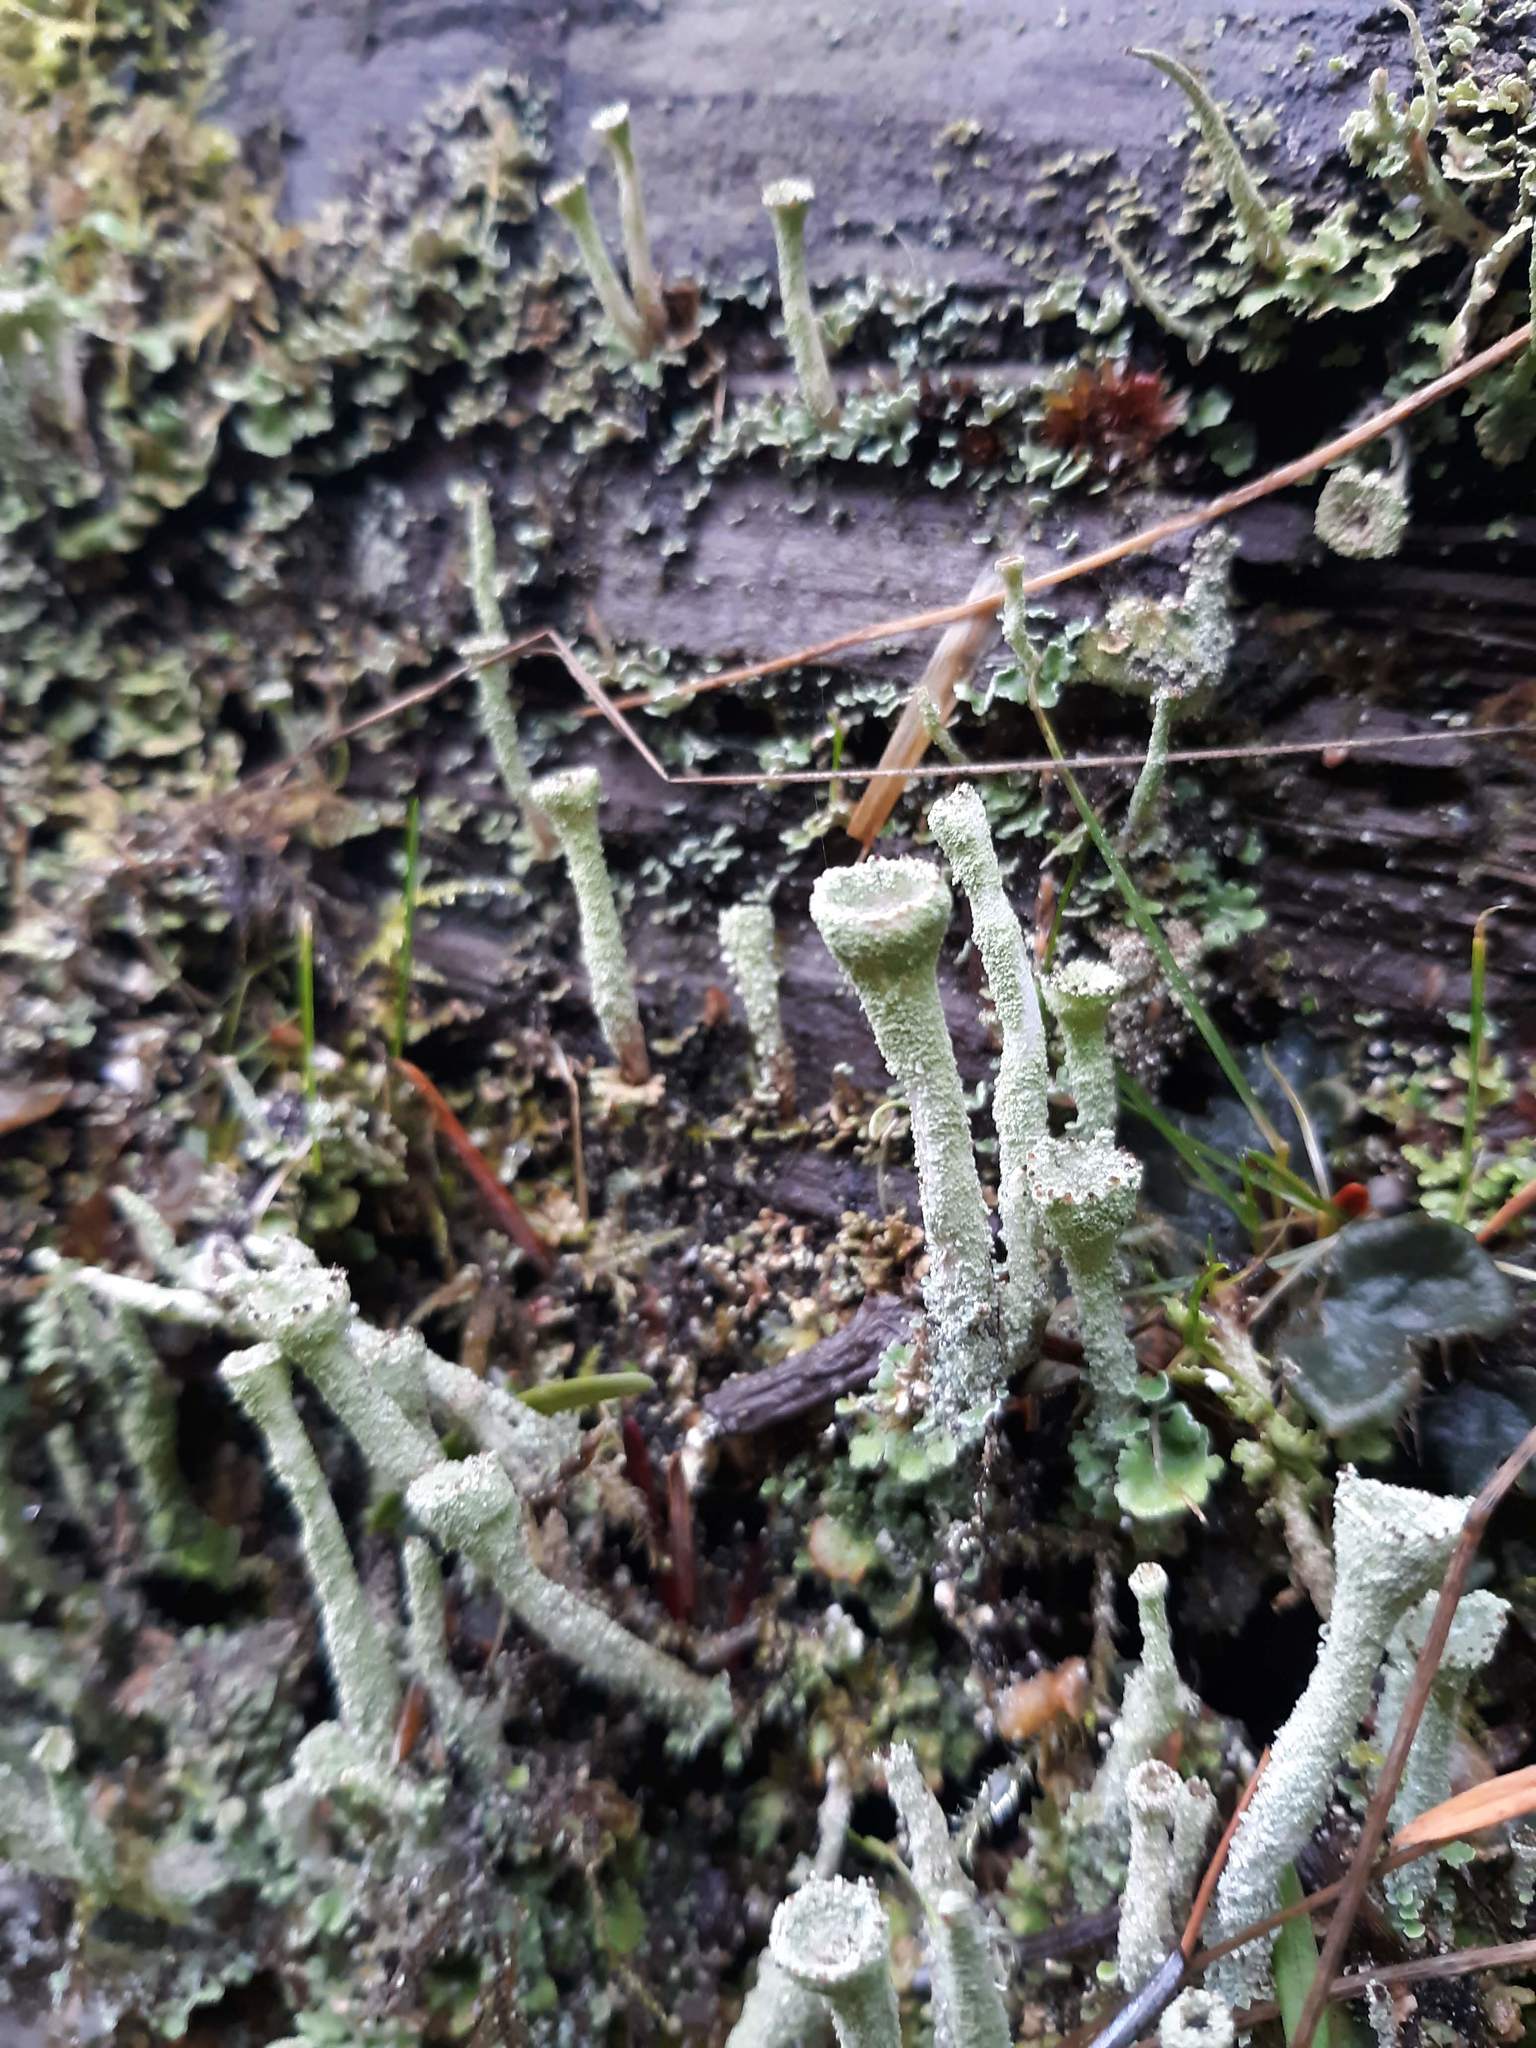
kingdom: Fungi
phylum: Ascomycota
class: Lecanoromycetes
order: Lecanorales
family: Cladoniaceae
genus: Cladonia
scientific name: Cladonia fimbriata
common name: Powdered trumpet lichen
